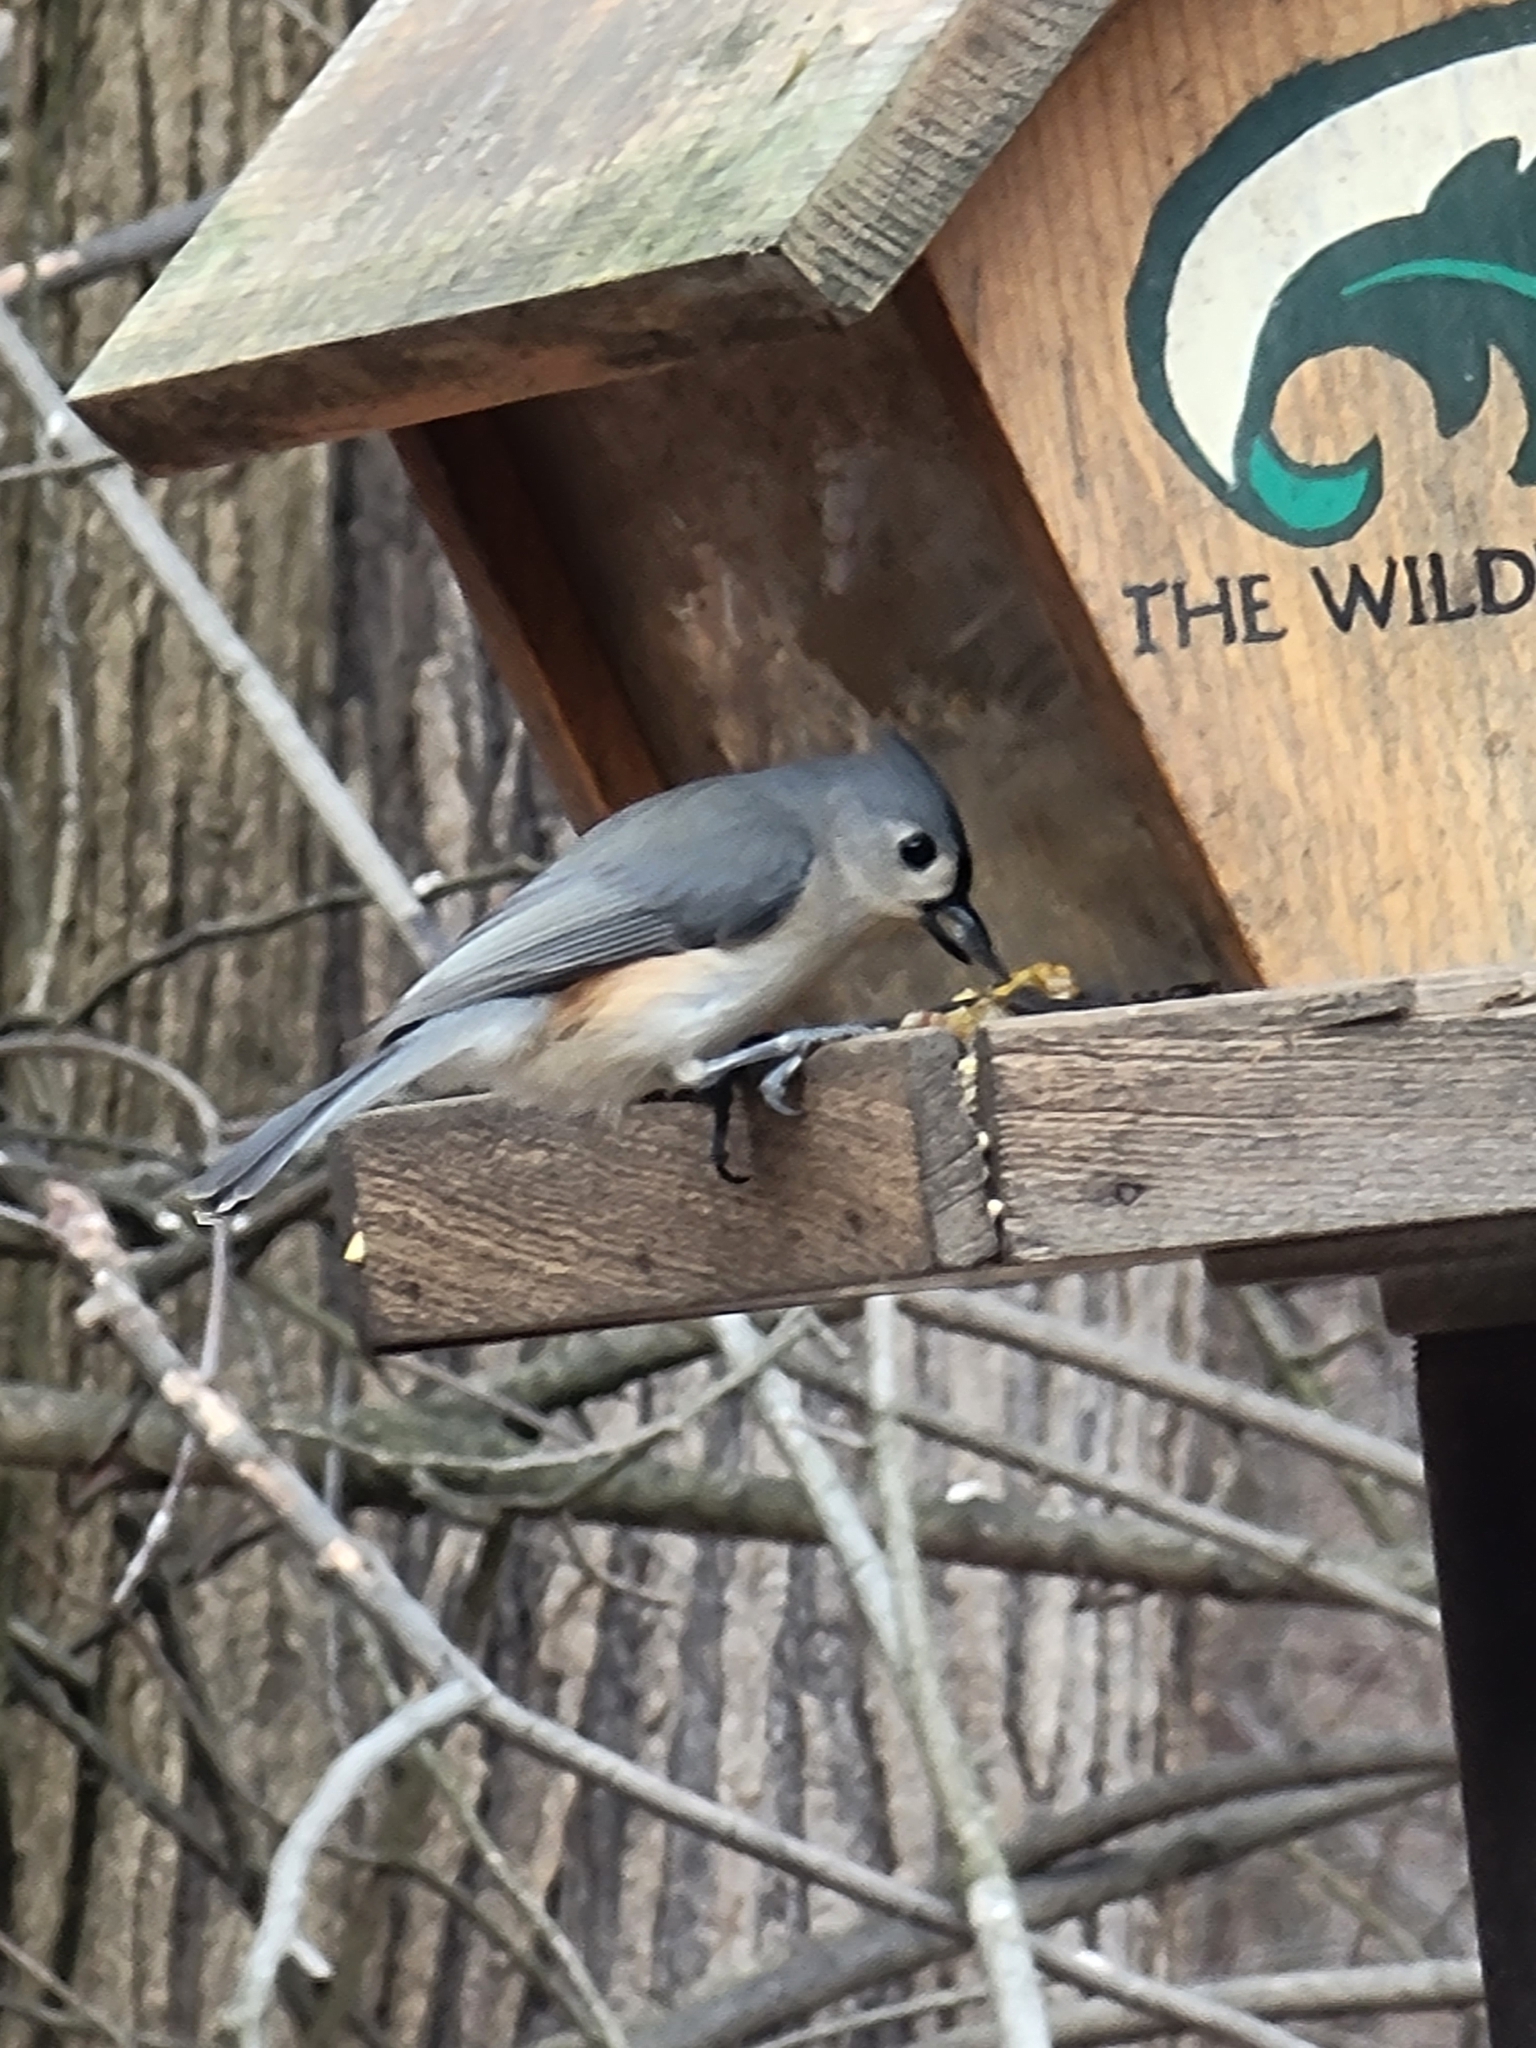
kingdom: Animalia
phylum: Chordata
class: Aves
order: Passeriformes
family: Paridae
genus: Baeolophus
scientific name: Baeolophus bicolor
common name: Tufted titmouse
